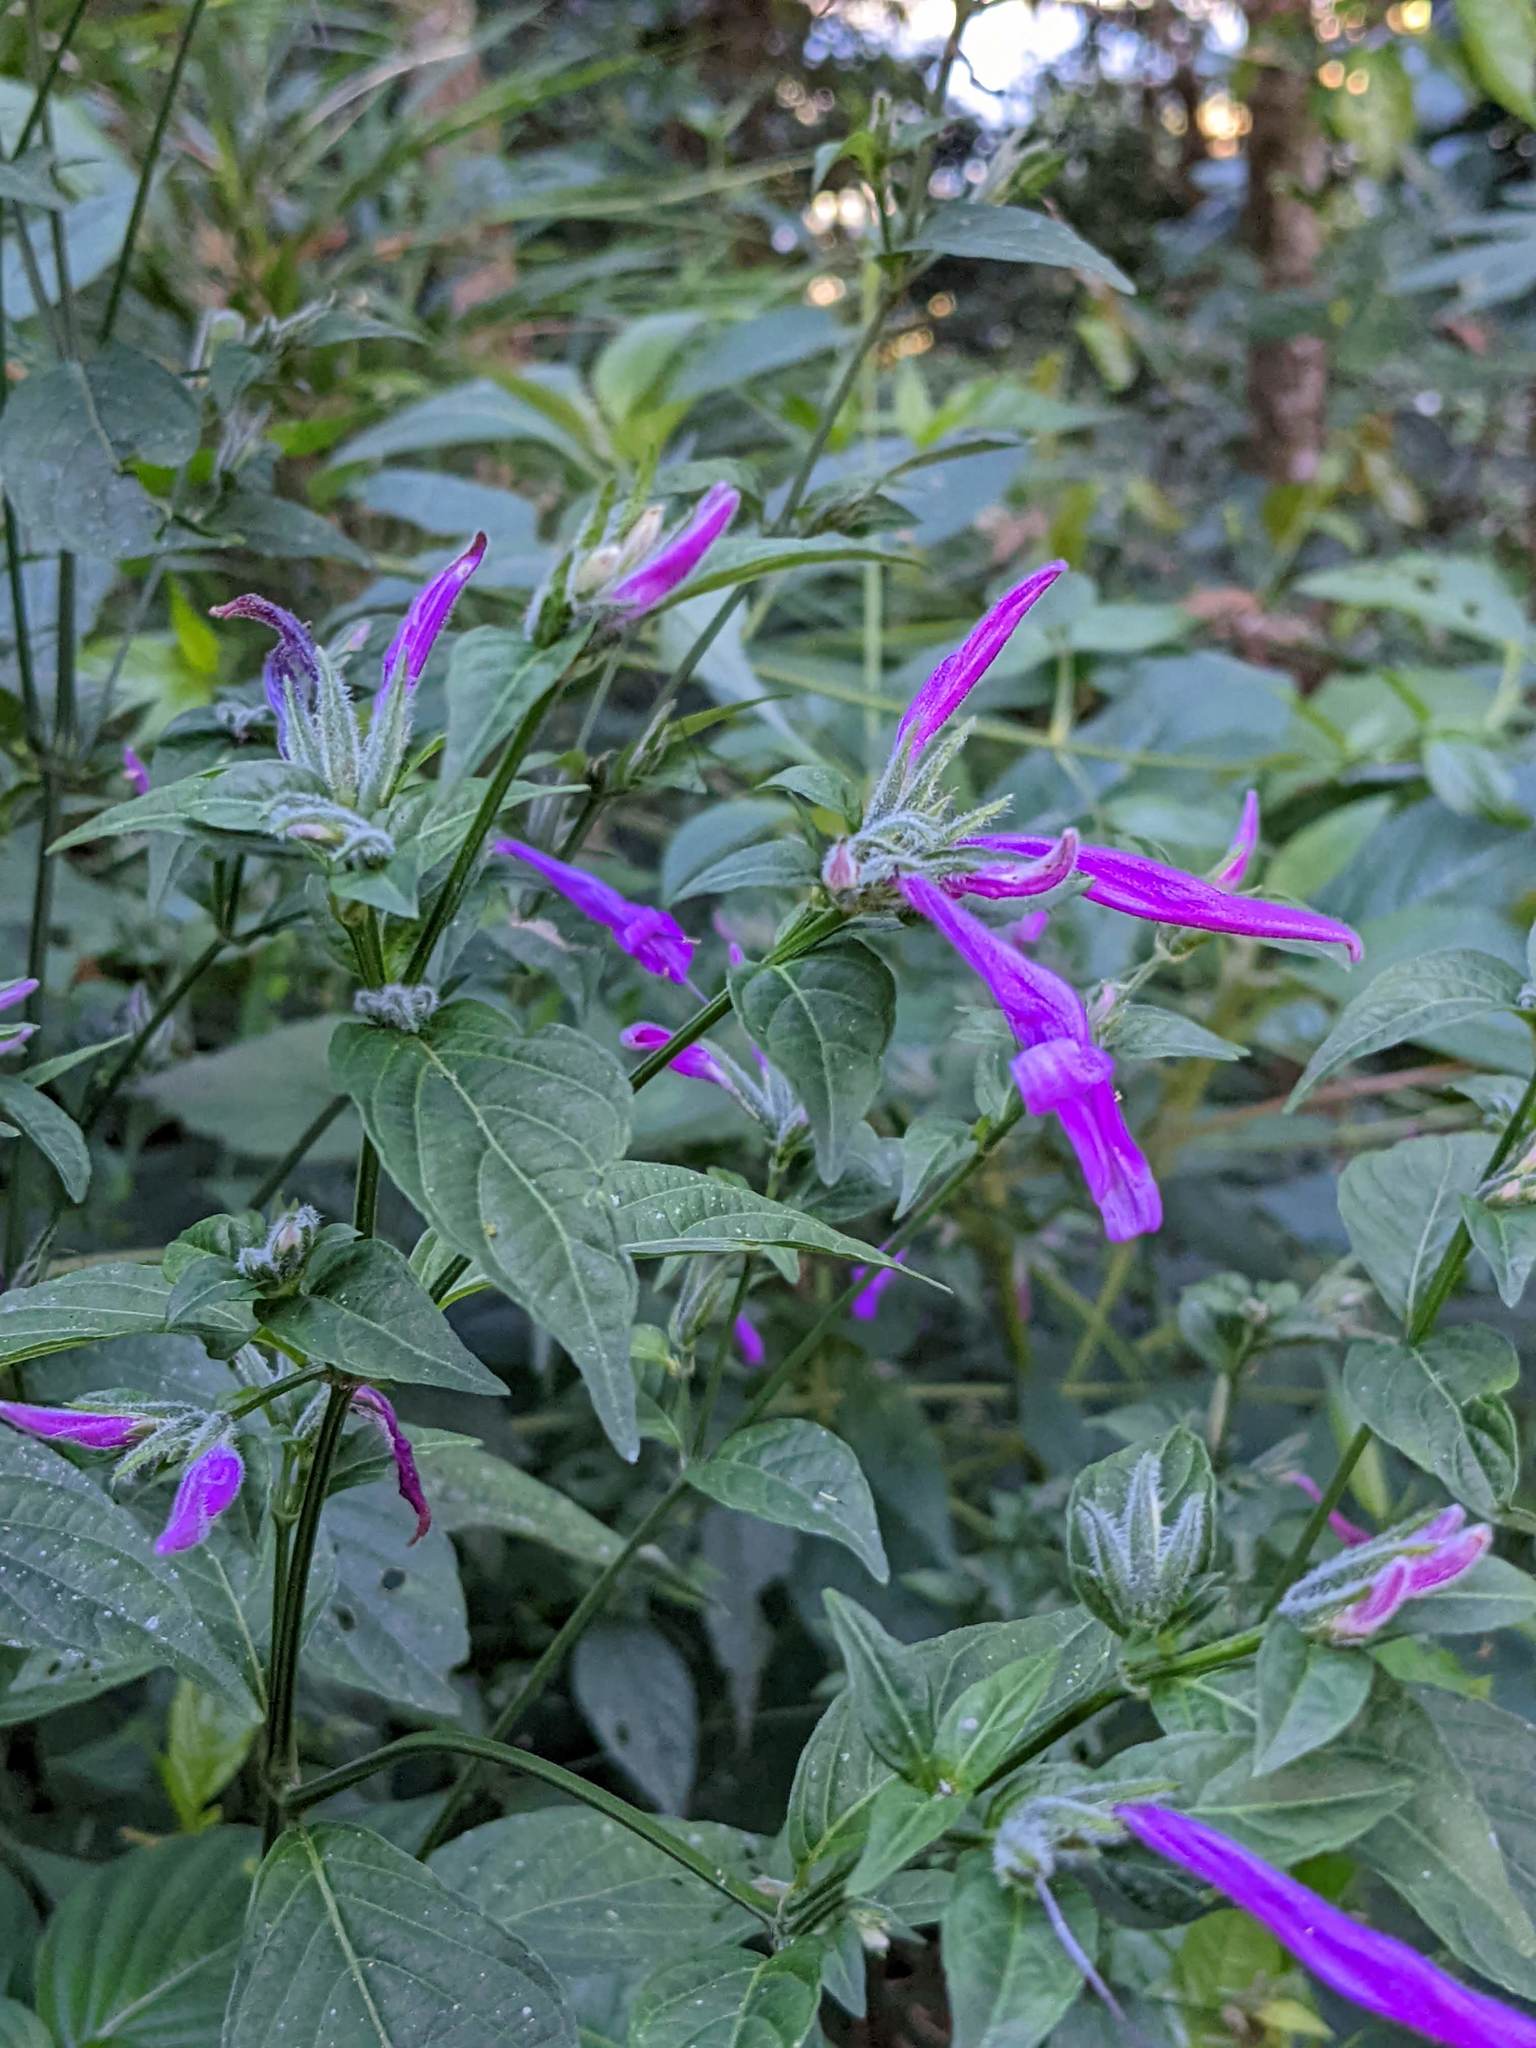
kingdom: Plantae
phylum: Tracheophyta
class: Magnoliopsida
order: Lamiales
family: Acanthaceae
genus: Dicliptera
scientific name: Dicliptera iopus
